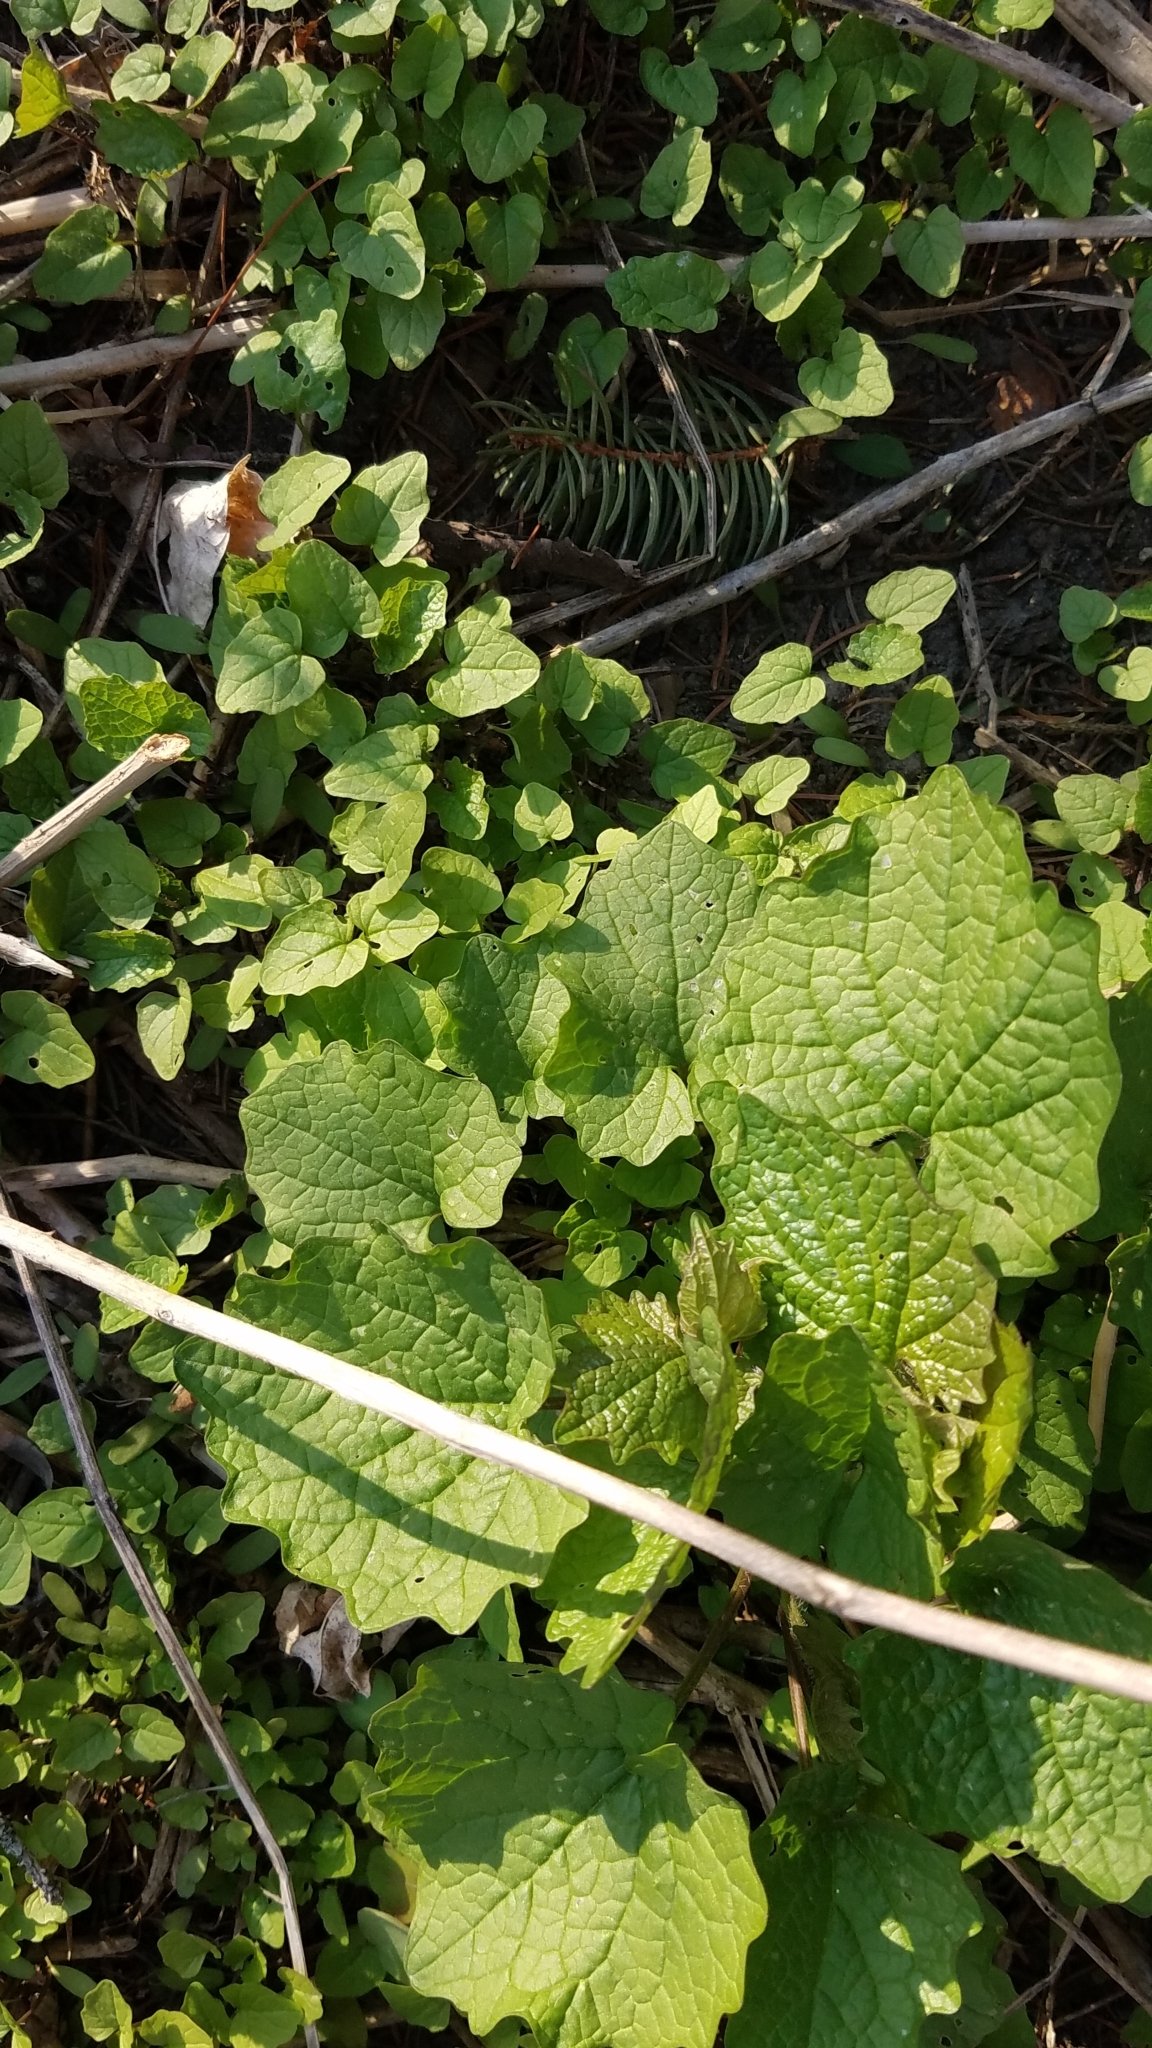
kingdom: Plantae
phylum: Tracheophyta
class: Magnoliopsida
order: Brassicales
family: Brassicaceae
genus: Alliaria
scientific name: Alliaria petiolata
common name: Garlic mustard
